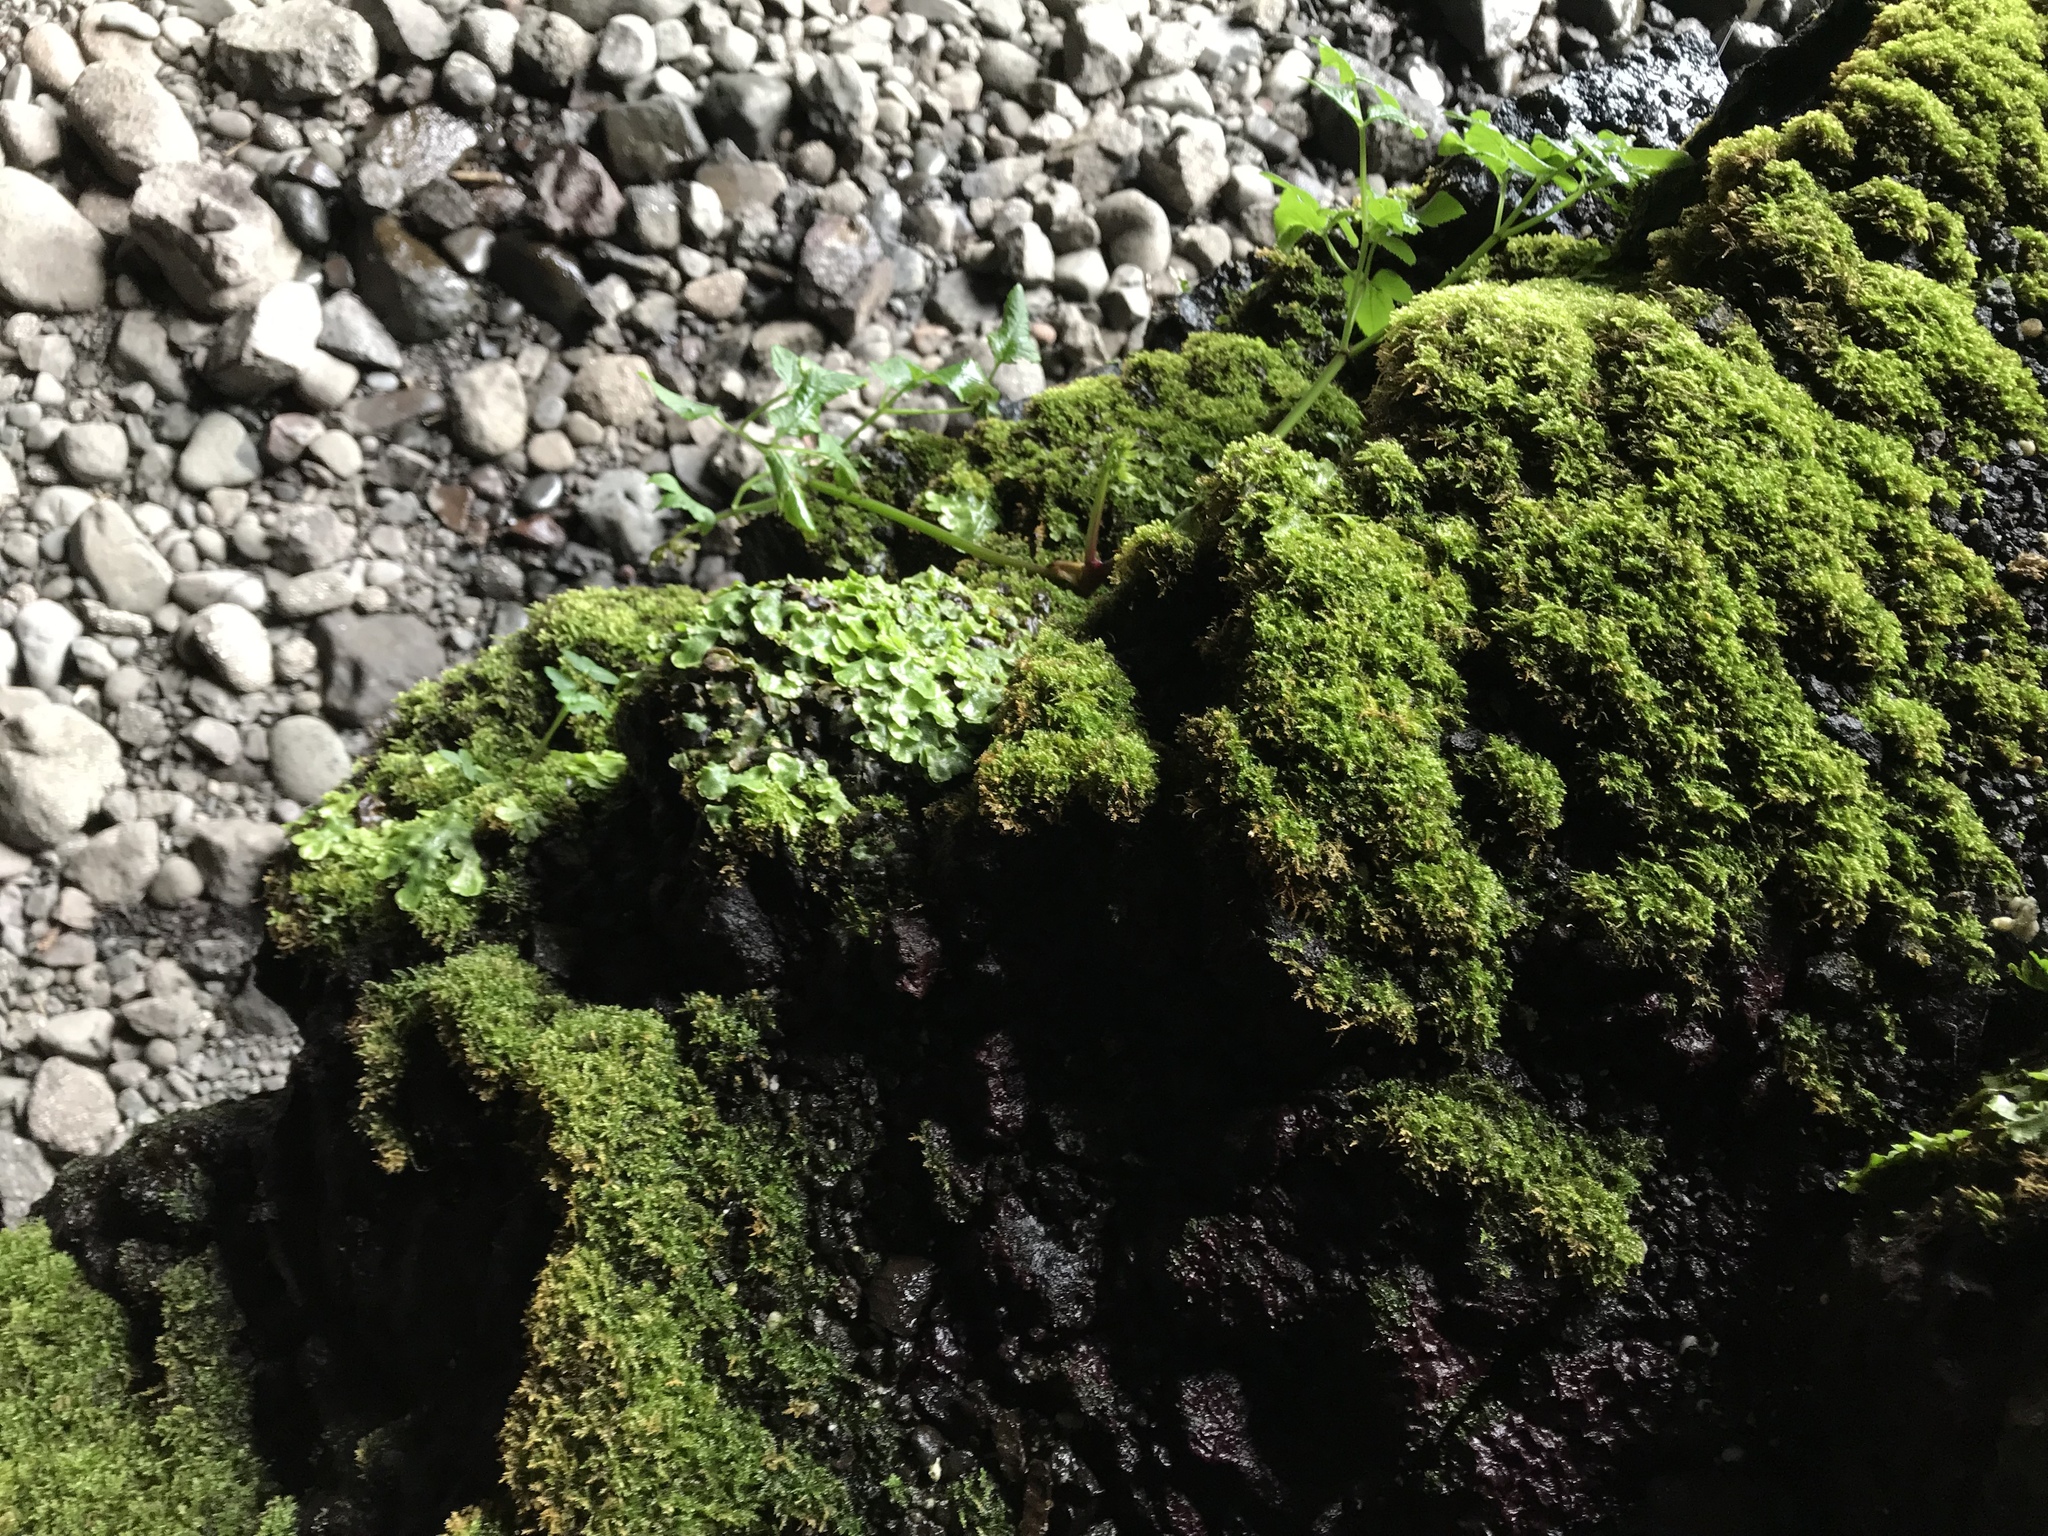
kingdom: Plantae
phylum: Marchantiophyta
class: Marchantiopsida
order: Marchantiales
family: Conocephalaceae
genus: Conocephalum
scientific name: Conocephalum conicum
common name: Great scented liverwort
